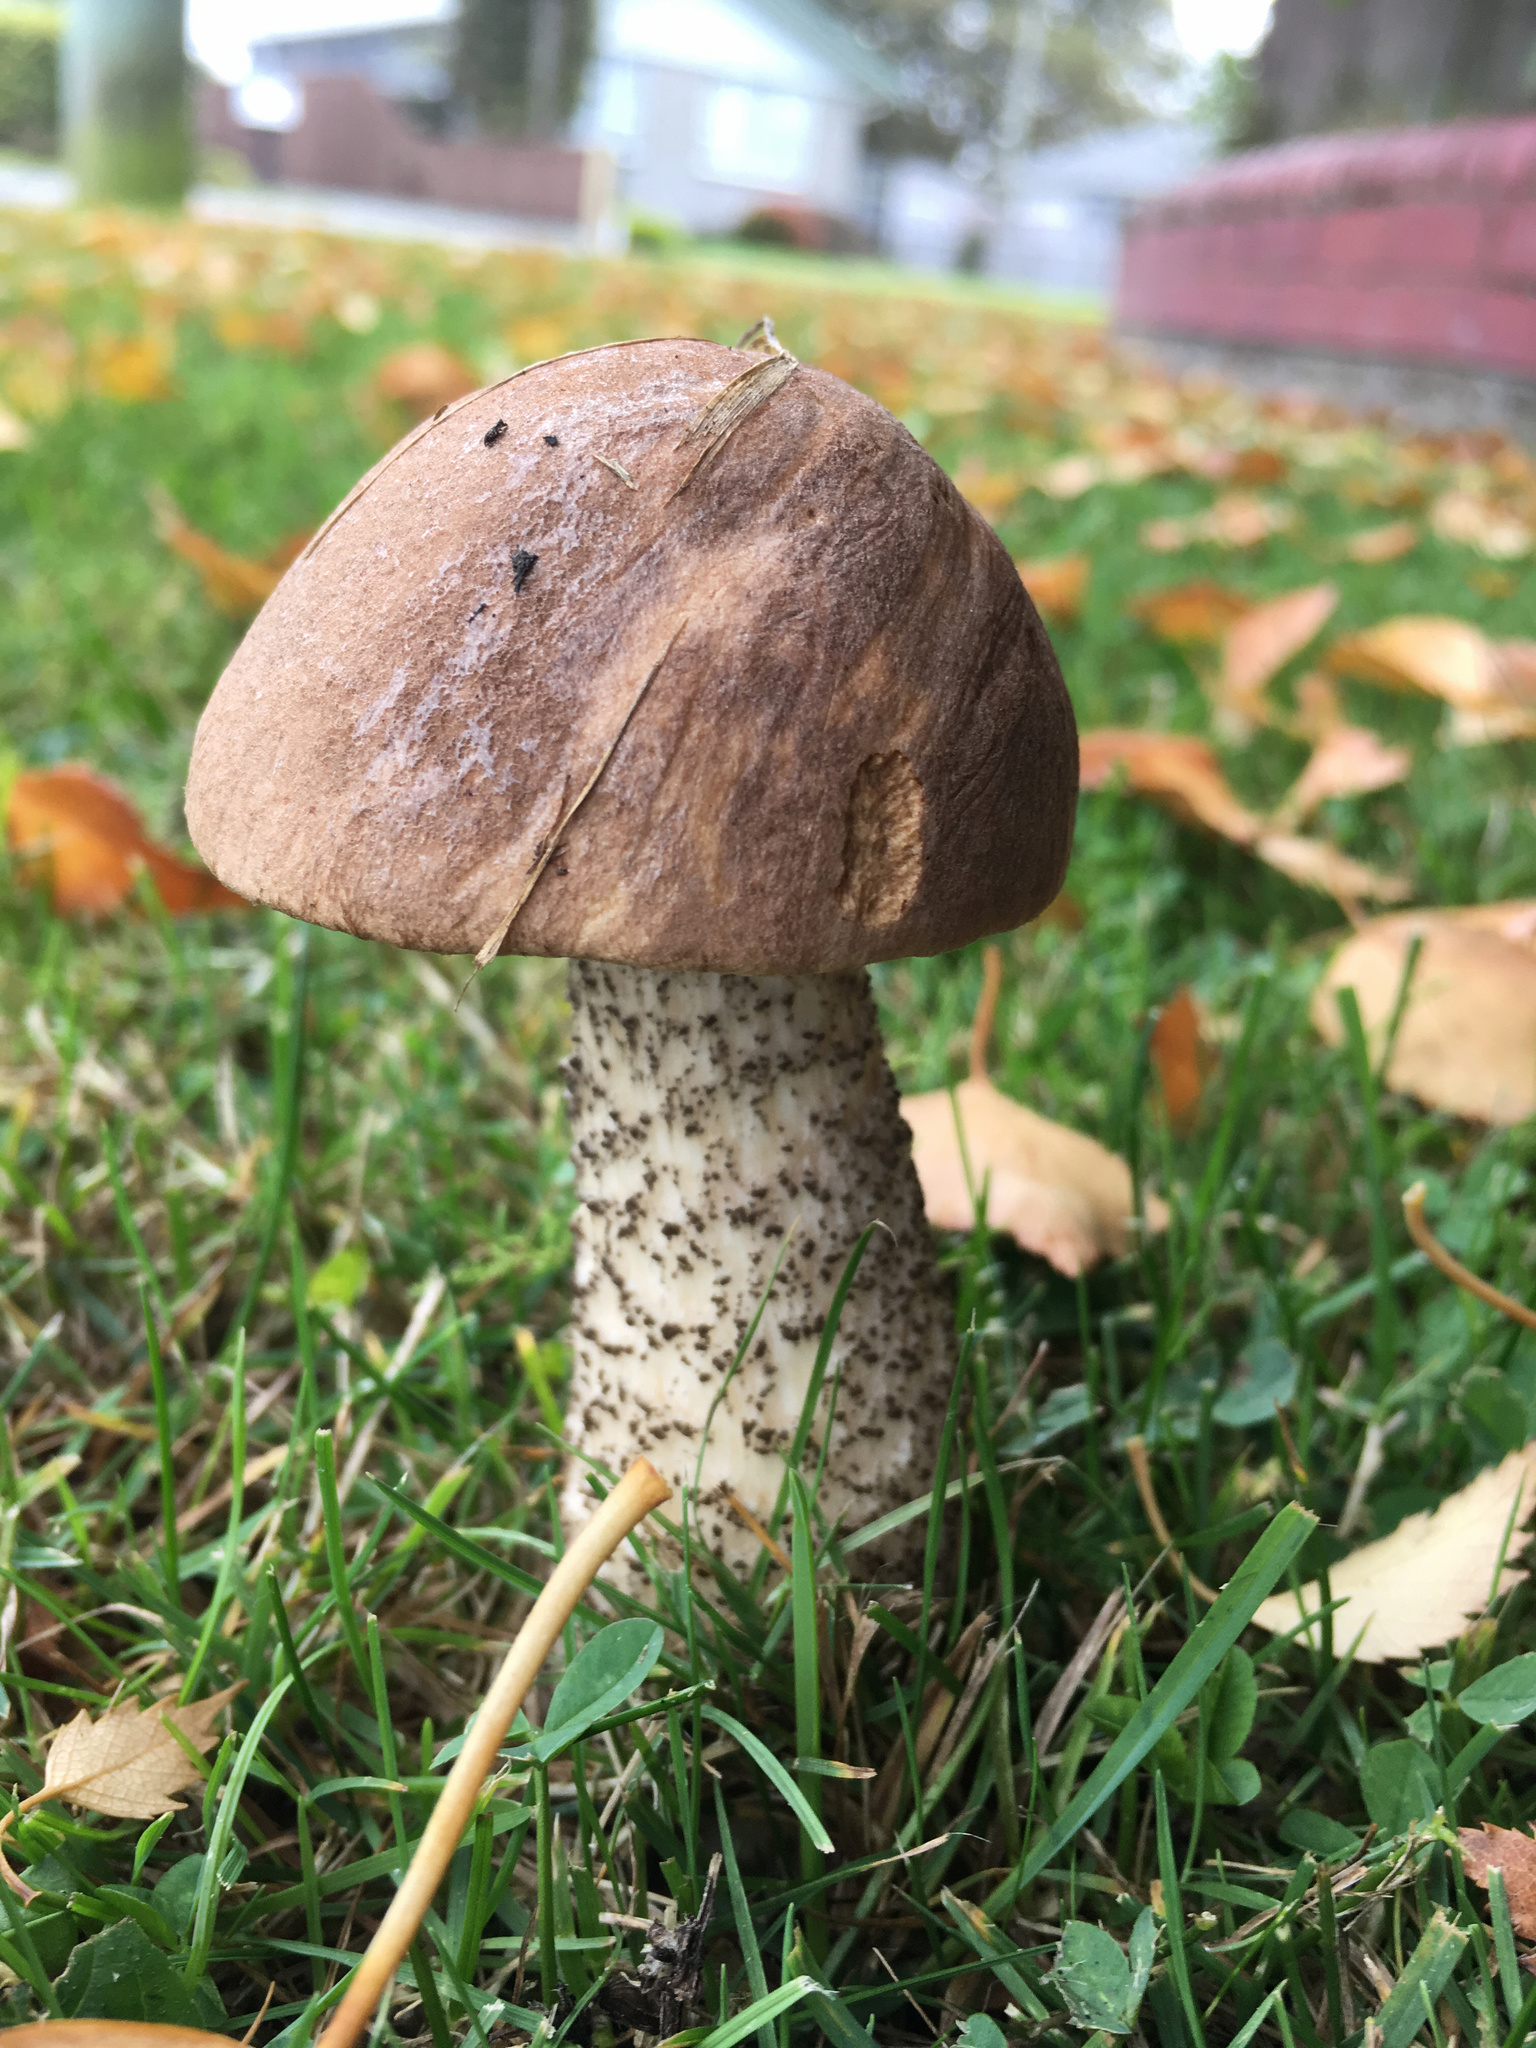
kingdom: Fungi
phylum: Basidiomycota
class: Agaricomycetes
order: Boletales
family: Boletaceae
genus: Leccinum
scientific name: Leccinum scabrum
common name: Blushing bolete
